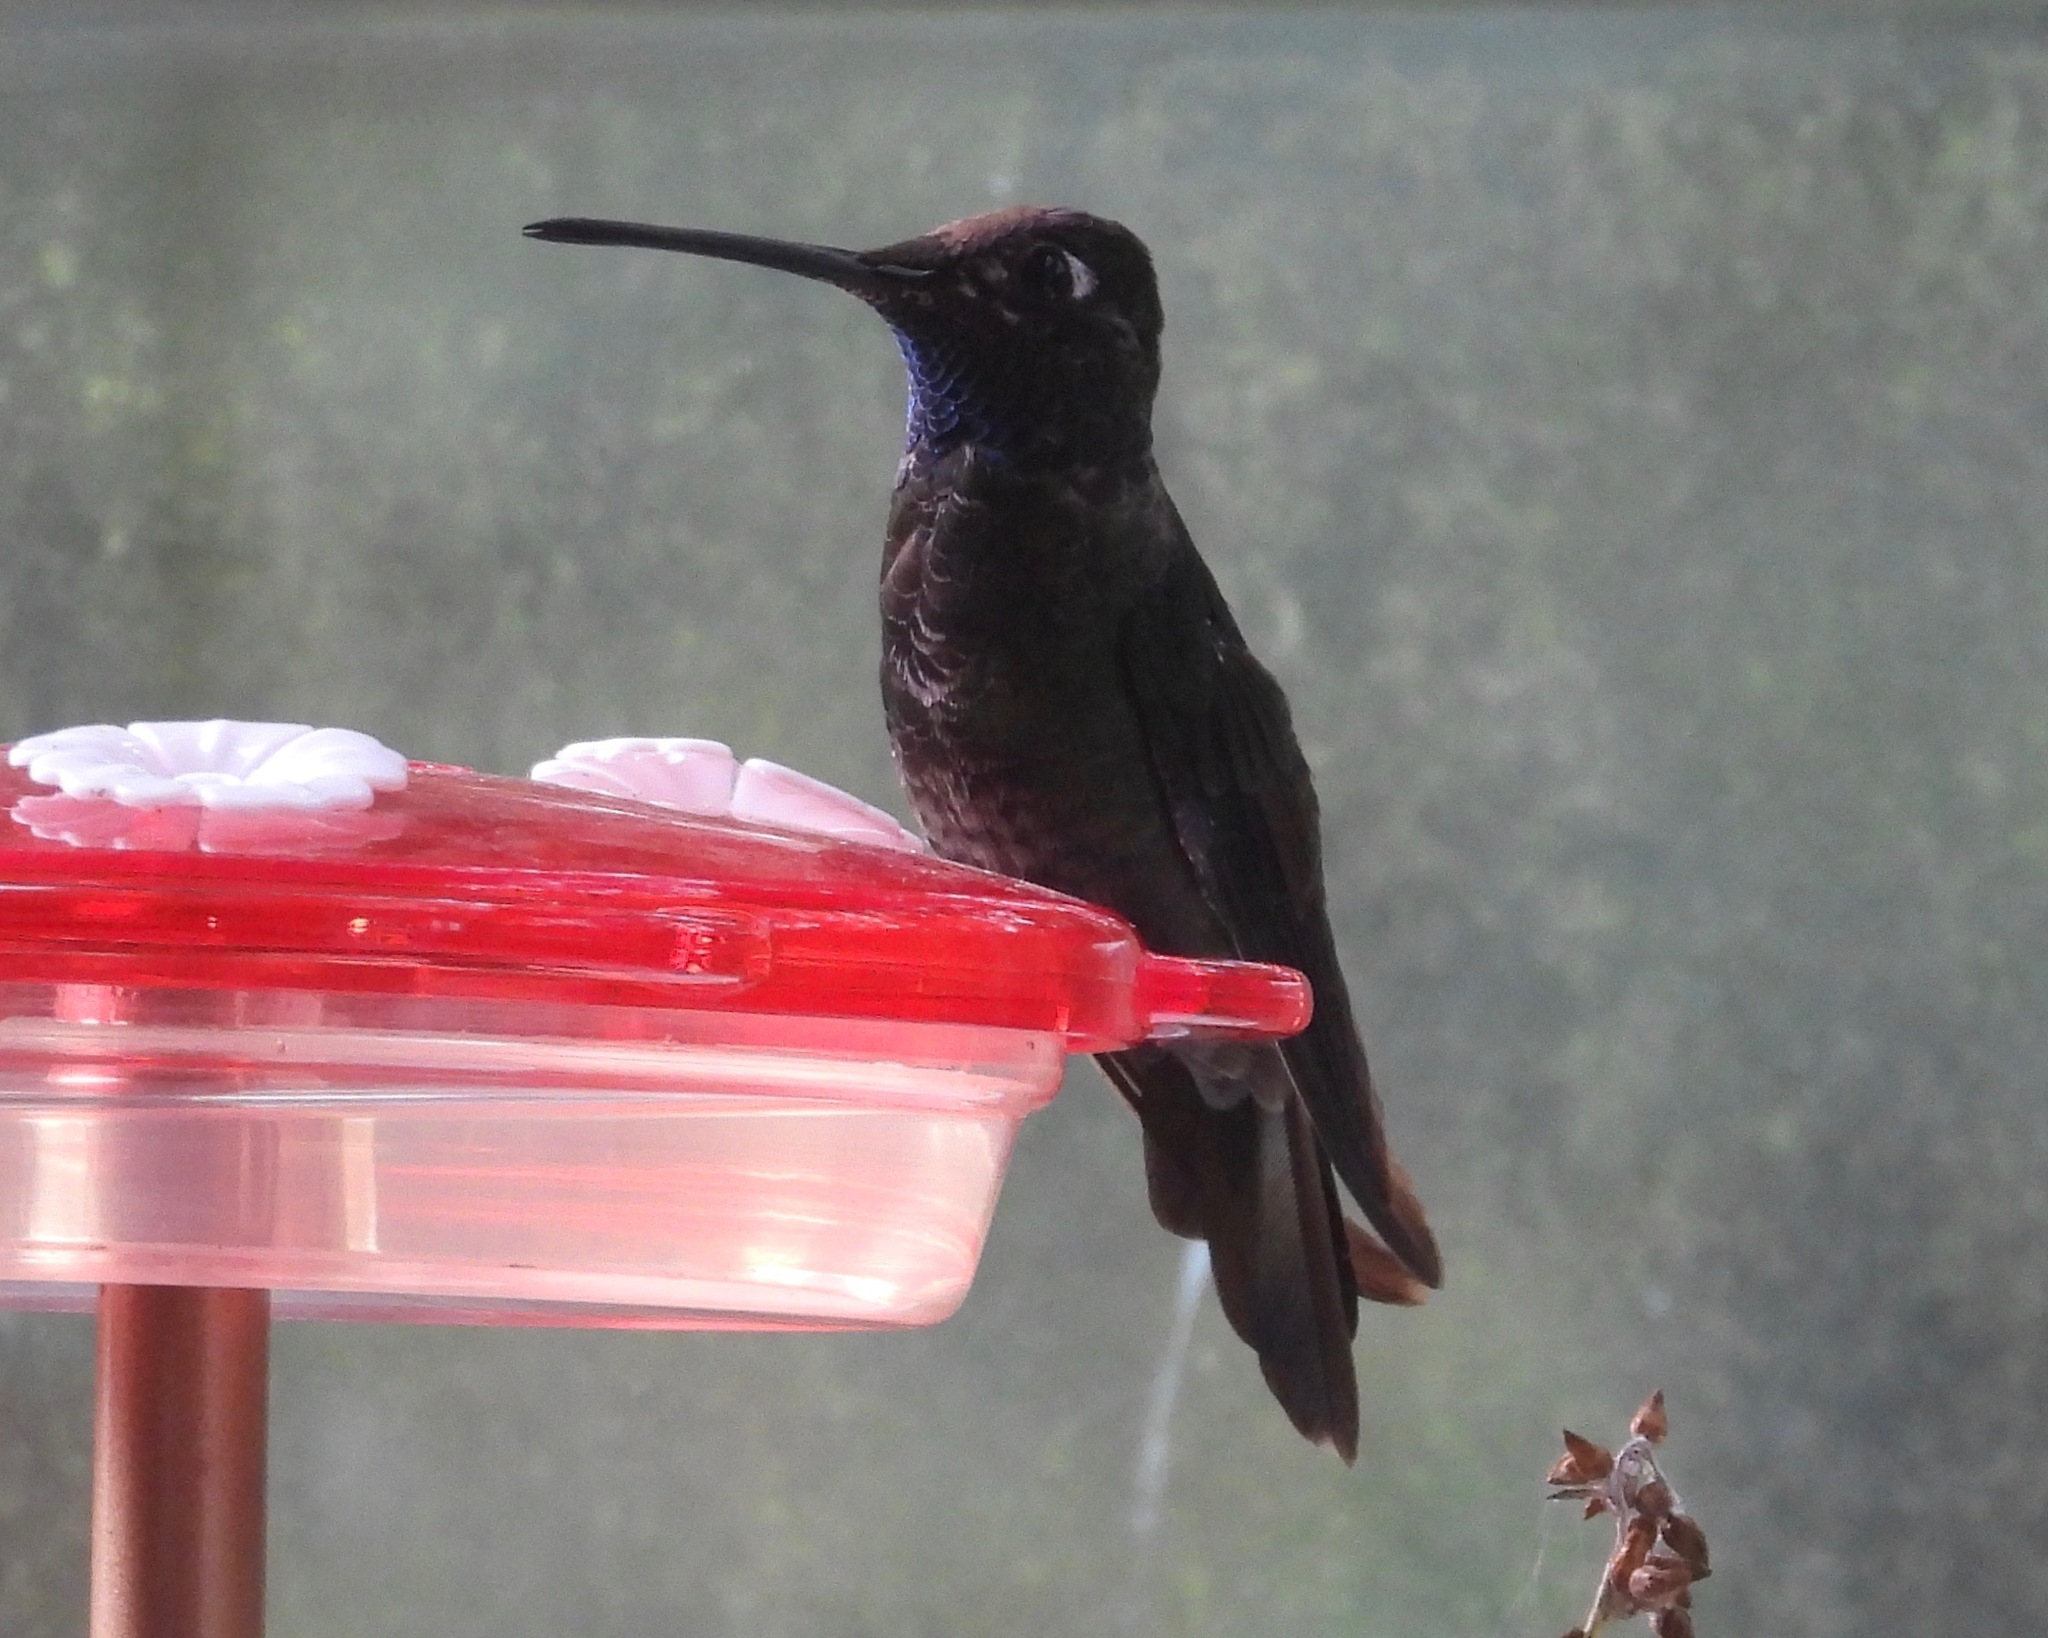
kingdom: Animalia
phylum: Chordata
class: Aves
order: Apodiformes
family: Trochilidae
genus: Eugenes
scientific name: Eugenes fulgens
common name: Magnificent hummingbird
